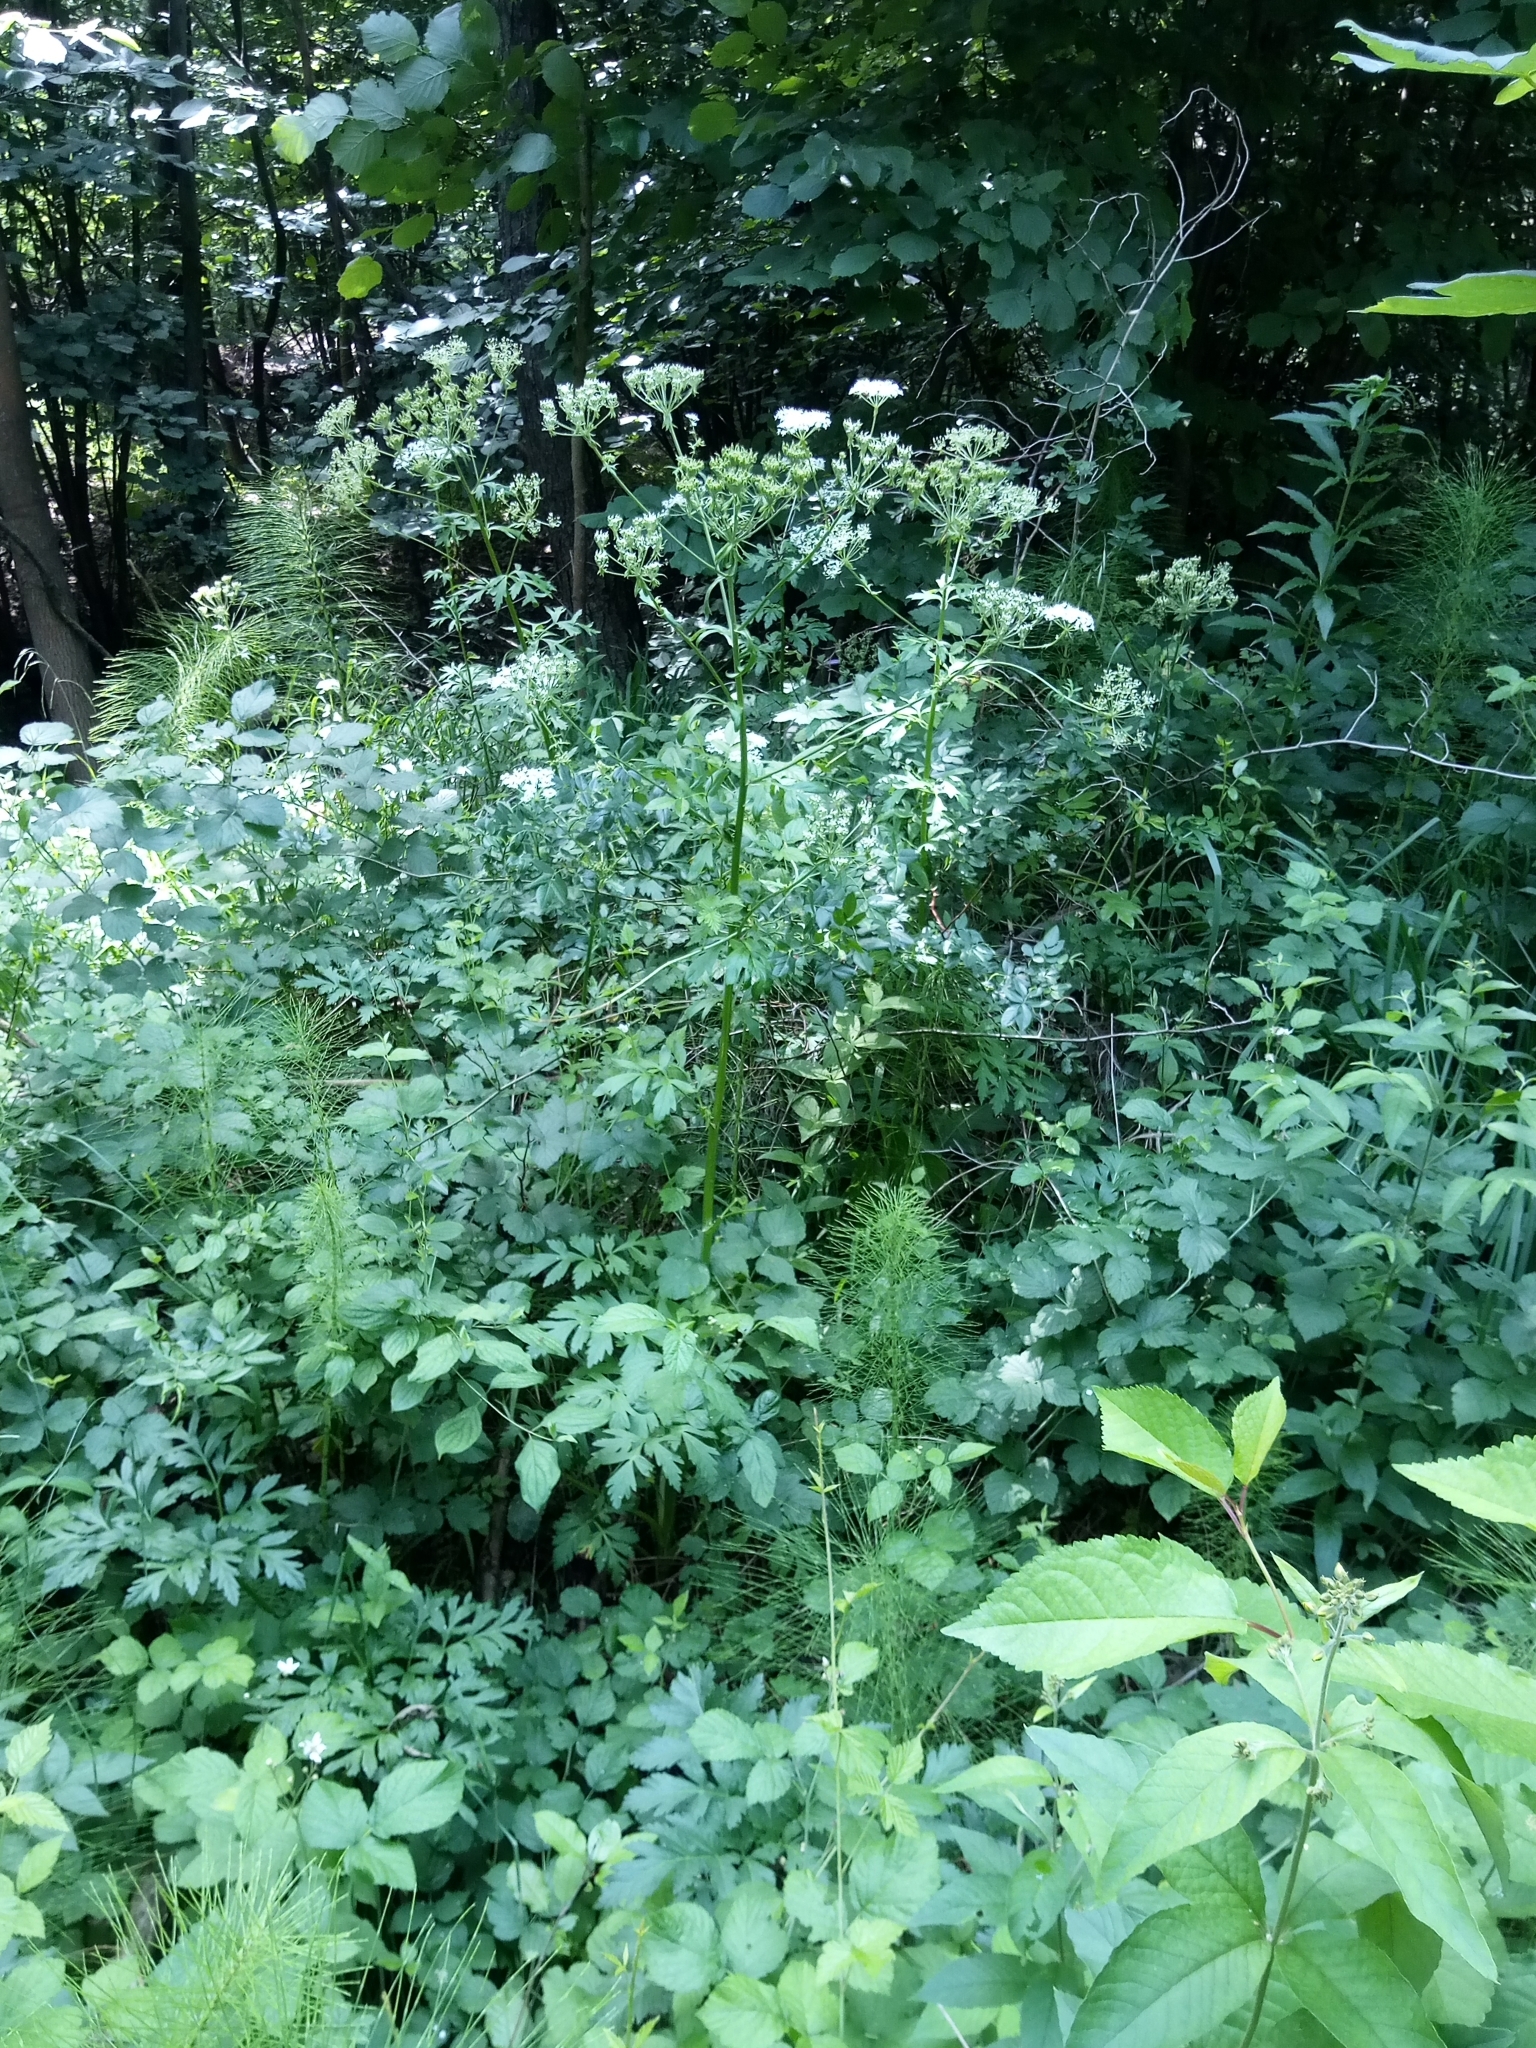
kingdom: Plantae
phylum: Tracheophyta
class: Magnoliopsida
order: Apiales
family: Apiaceae
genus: Pleurospermum
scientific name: Pleurospermum austriacum
